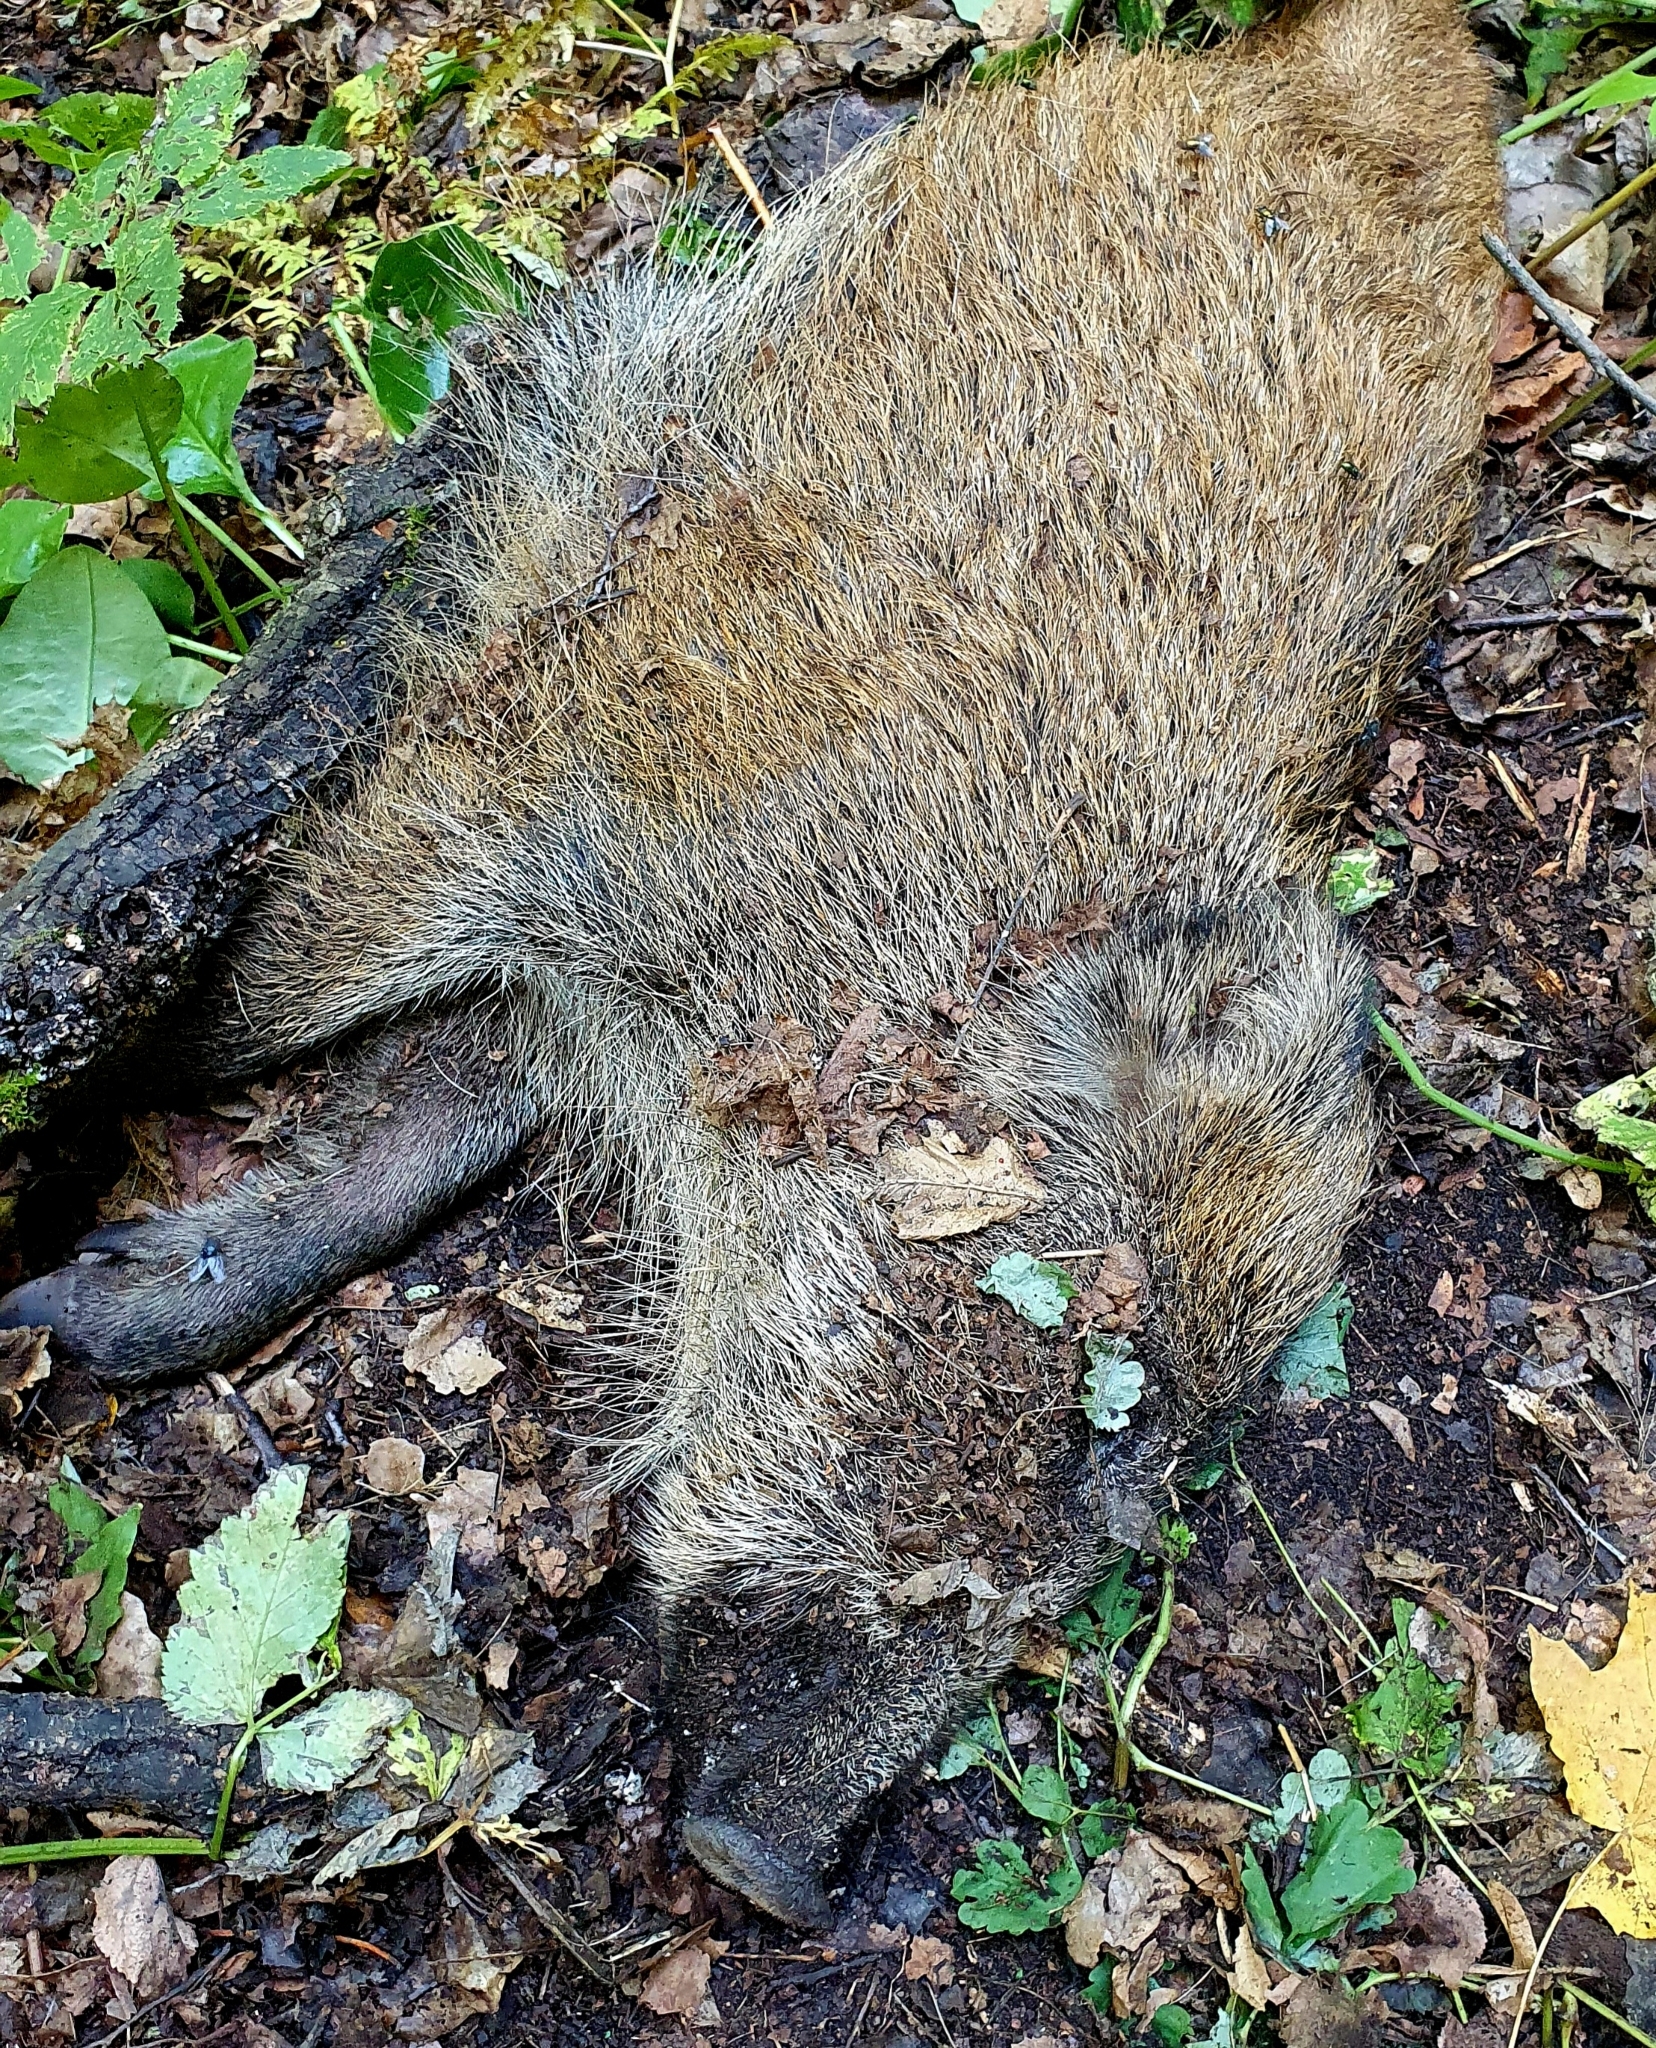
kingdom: Animalia
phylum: Chordata
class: Mammalia
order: Artiodactyla
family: Suidae
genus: Sus
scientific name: Sus scrofa
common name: Wild boar
